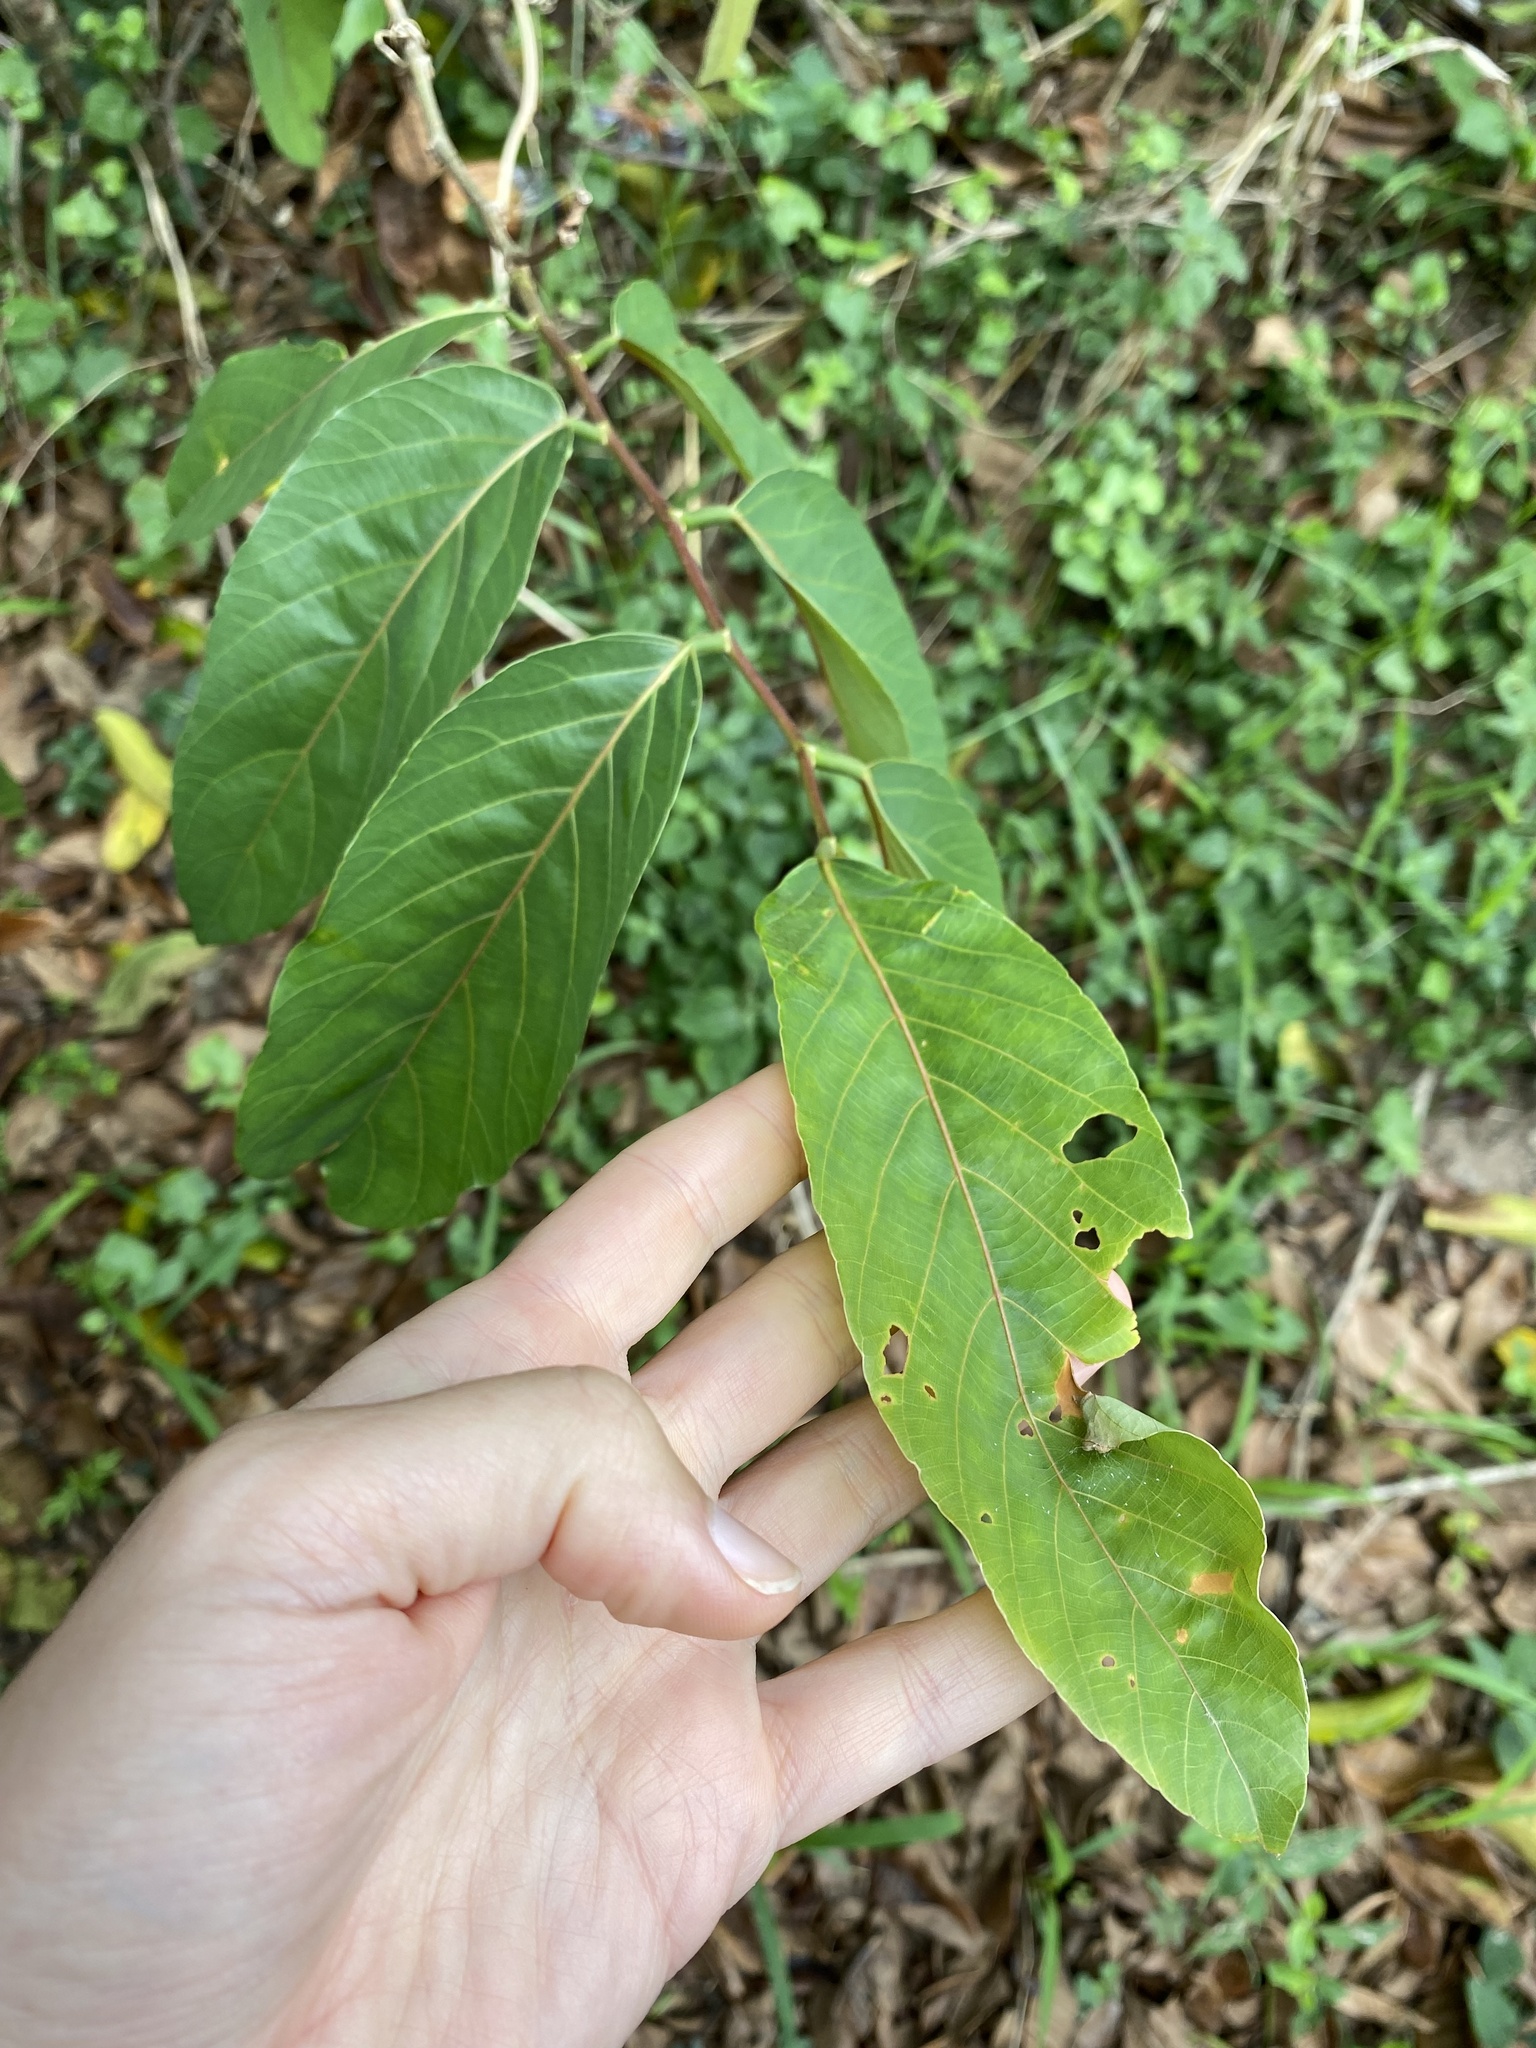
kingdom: Plantae
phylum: Tracheophyta
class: Magnoliopsida
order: Malpighiales
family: Phyllanthaceae
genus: Bridelia
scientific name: Bridelia micrantha
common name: Bridelia
